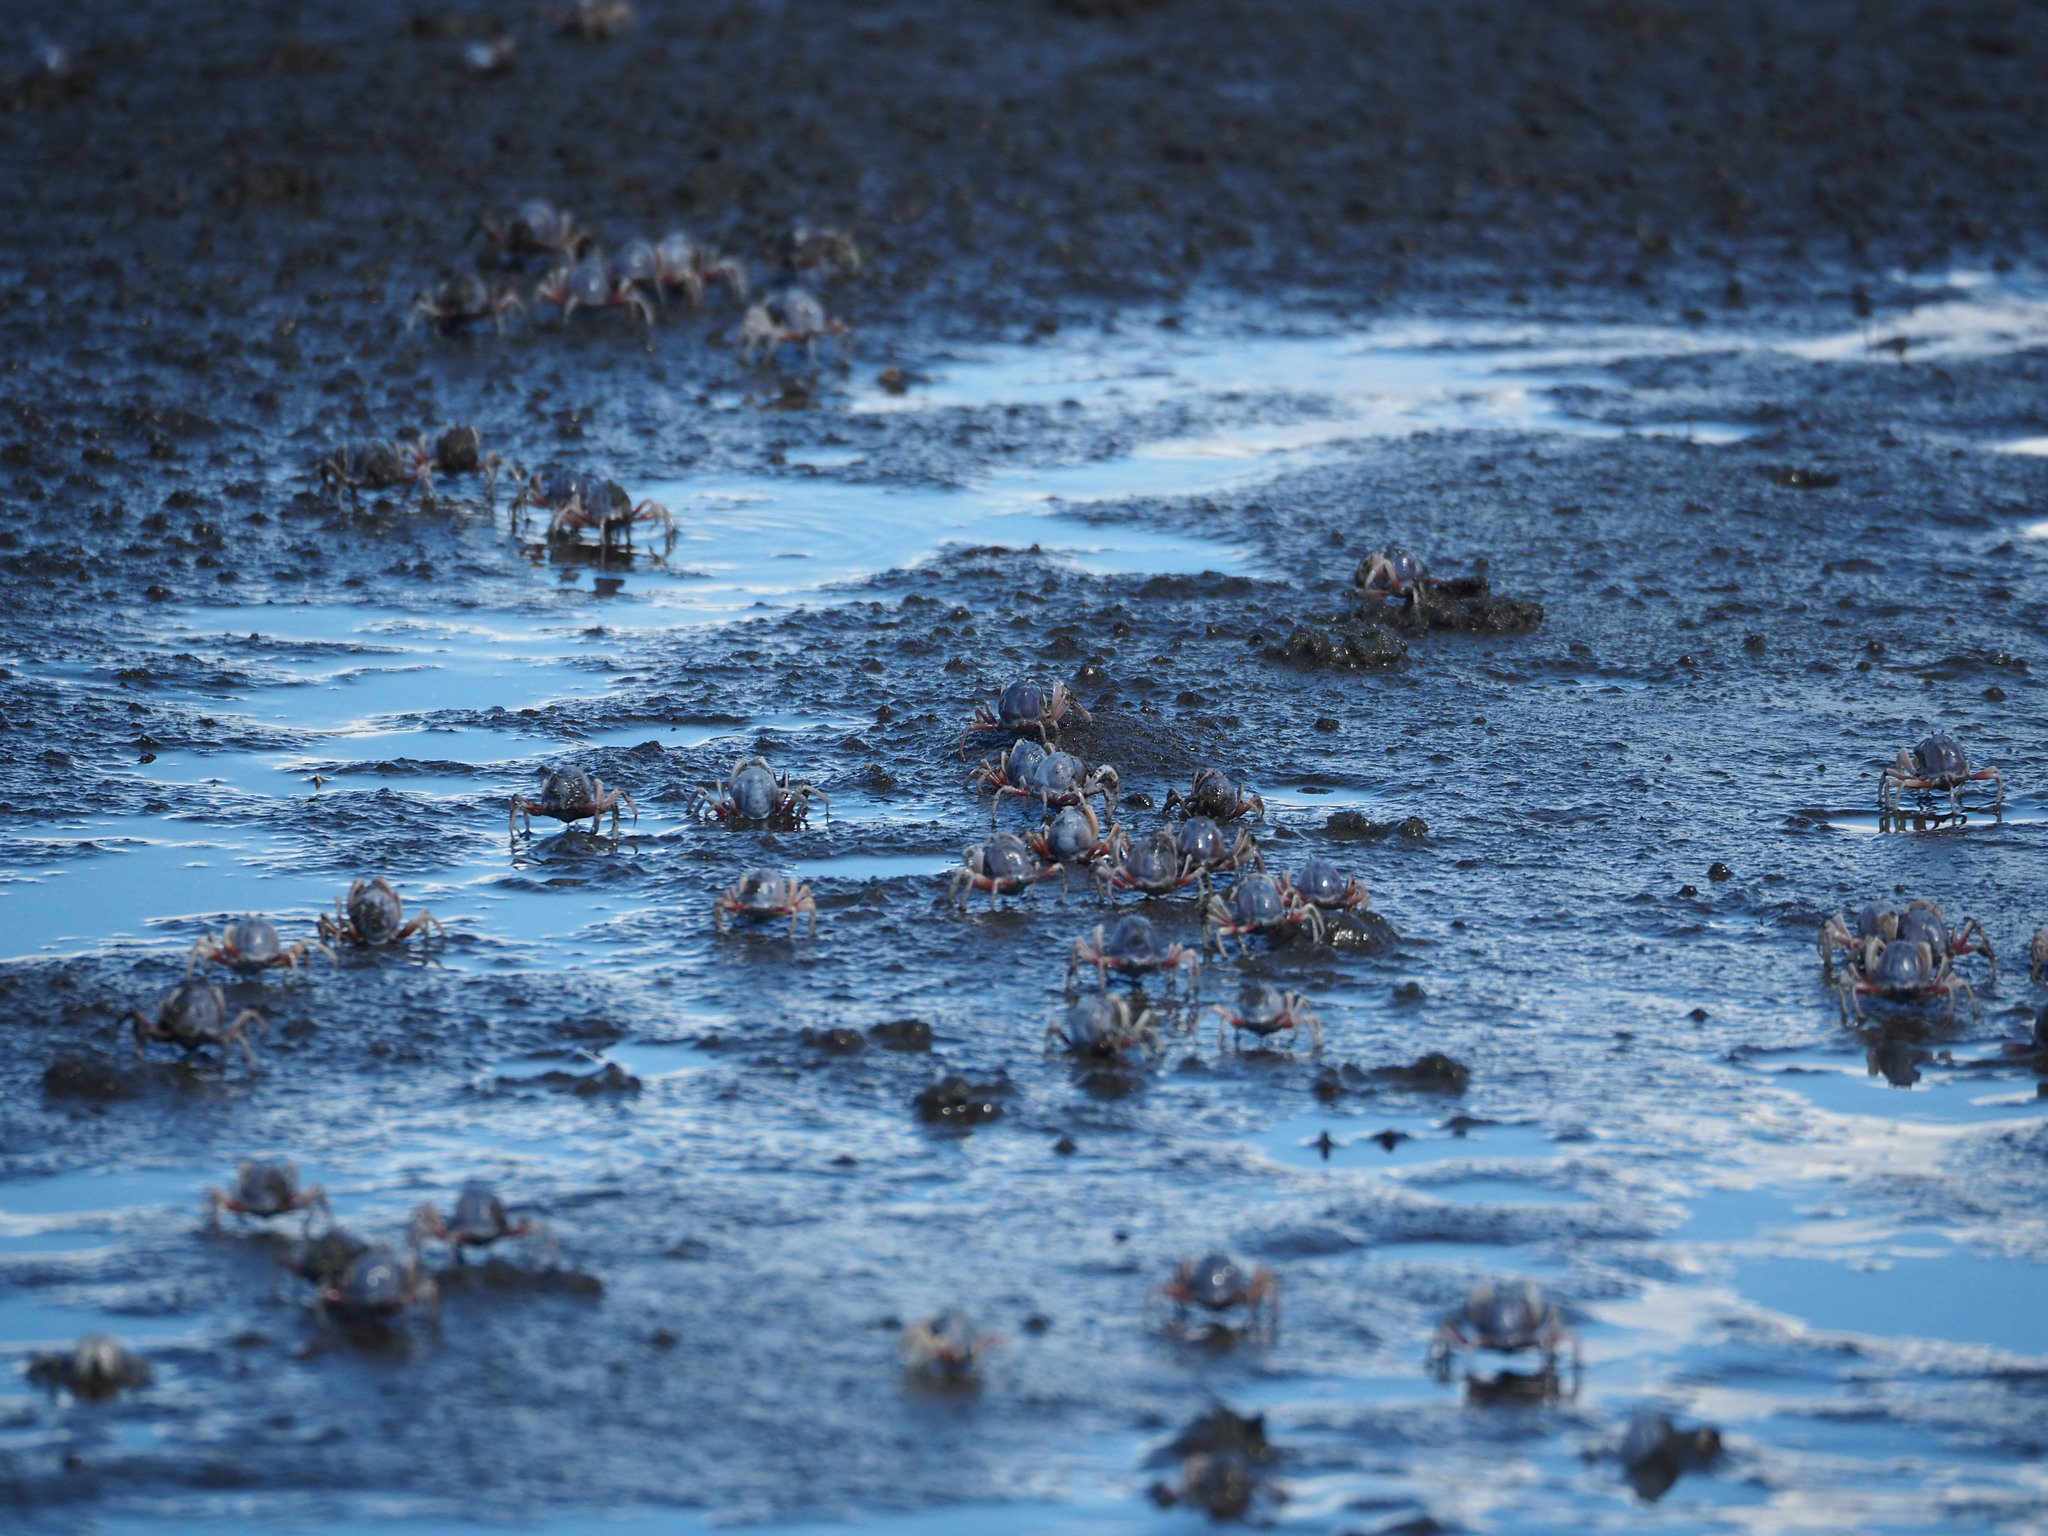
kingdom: Animalia
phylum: Arthropoda
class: Malacostraca
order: Decapoda
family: Mictyridae
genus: Mictyris
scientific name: Mictyris brevidactylus
